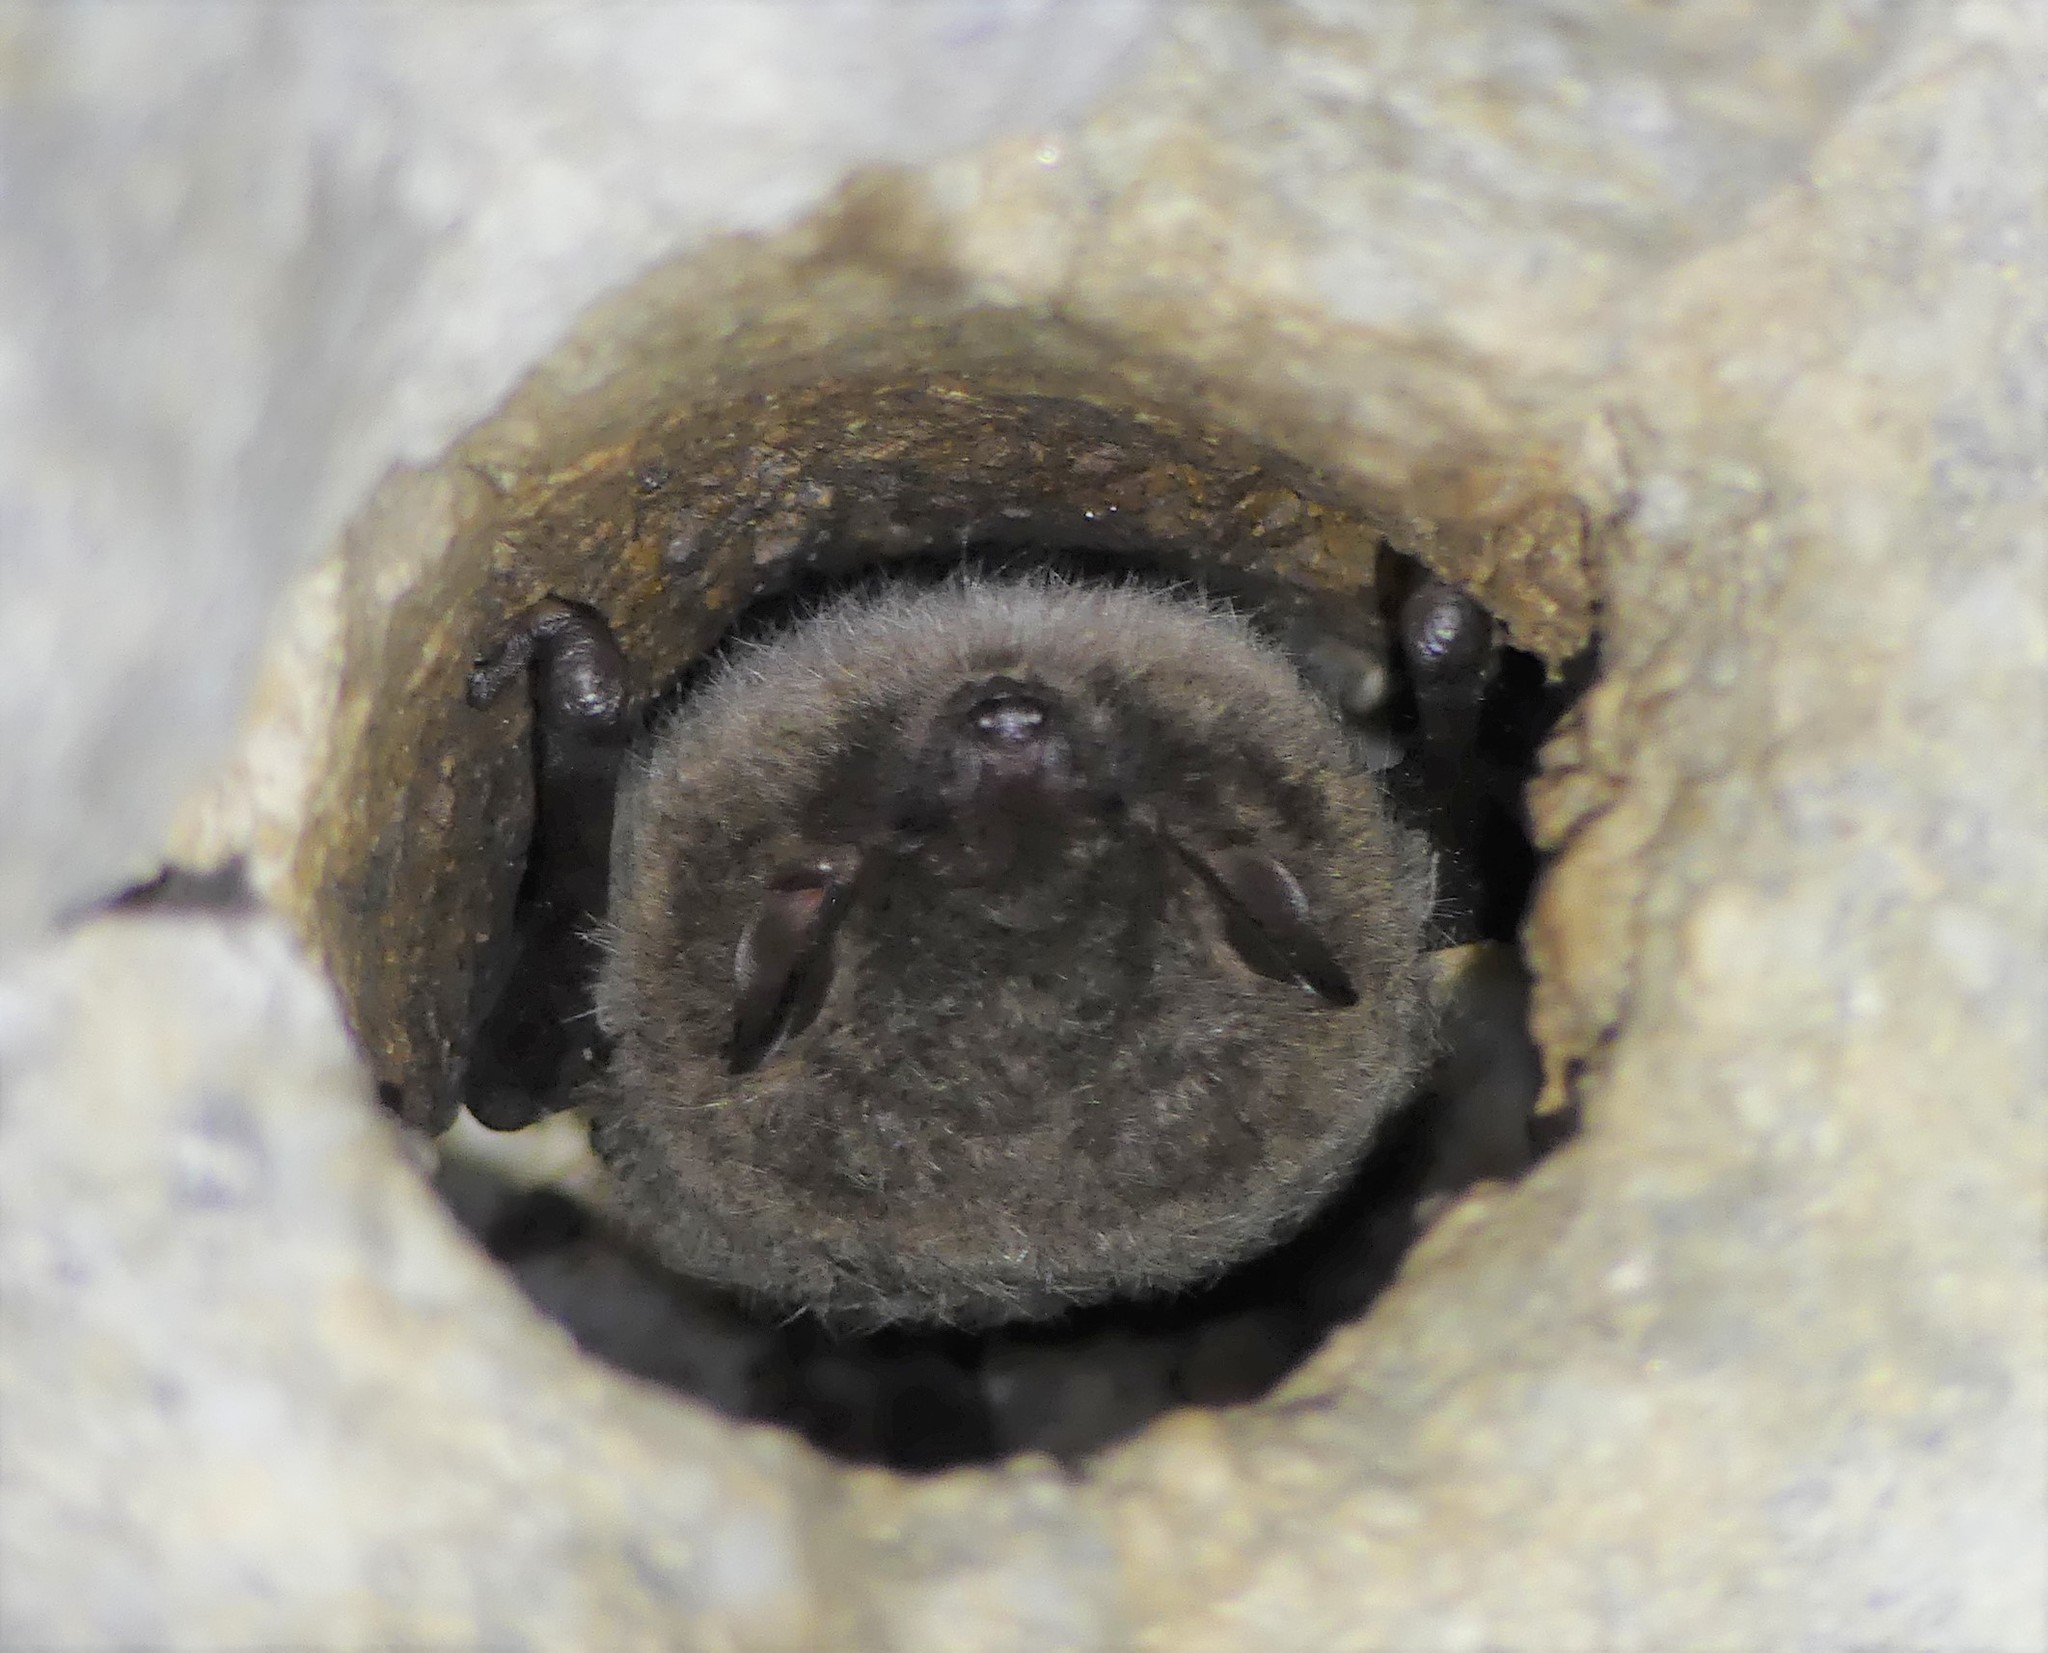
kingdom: Animalia
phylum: Chordata
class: Mammalia
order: Chiroptera
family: Vespertilionidae
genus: Myotis
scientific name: Myotis daubentonii
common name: Daubenton's myotis
